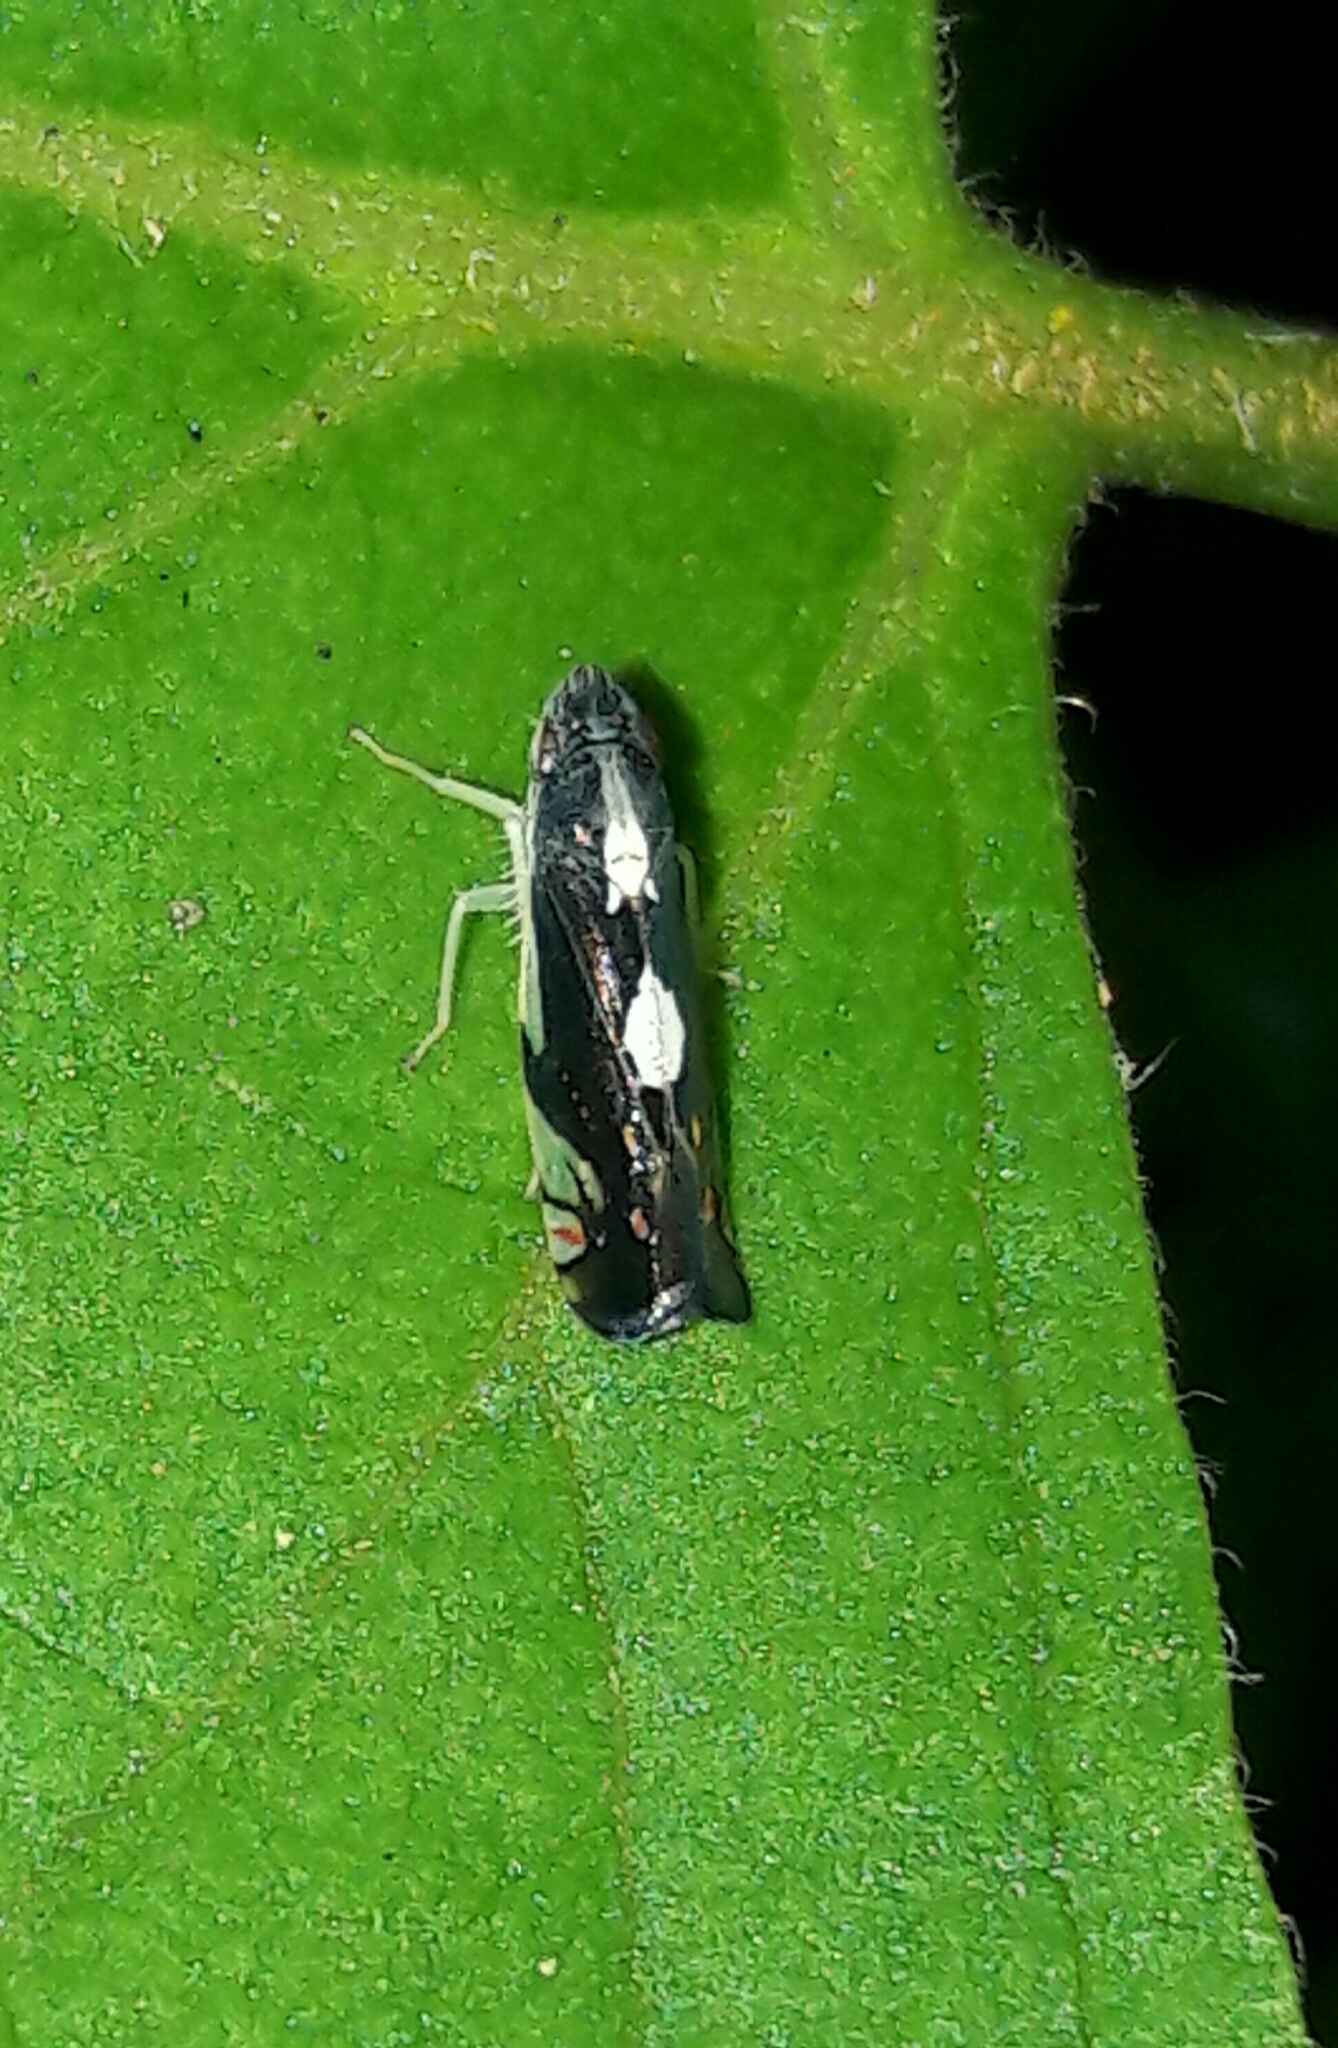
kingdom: Animalia
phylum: Arthropoda
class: Insecta
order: Hemiptera
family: Cicadellidae
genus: Diedrocephala
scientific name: Diedrocephala variegata
